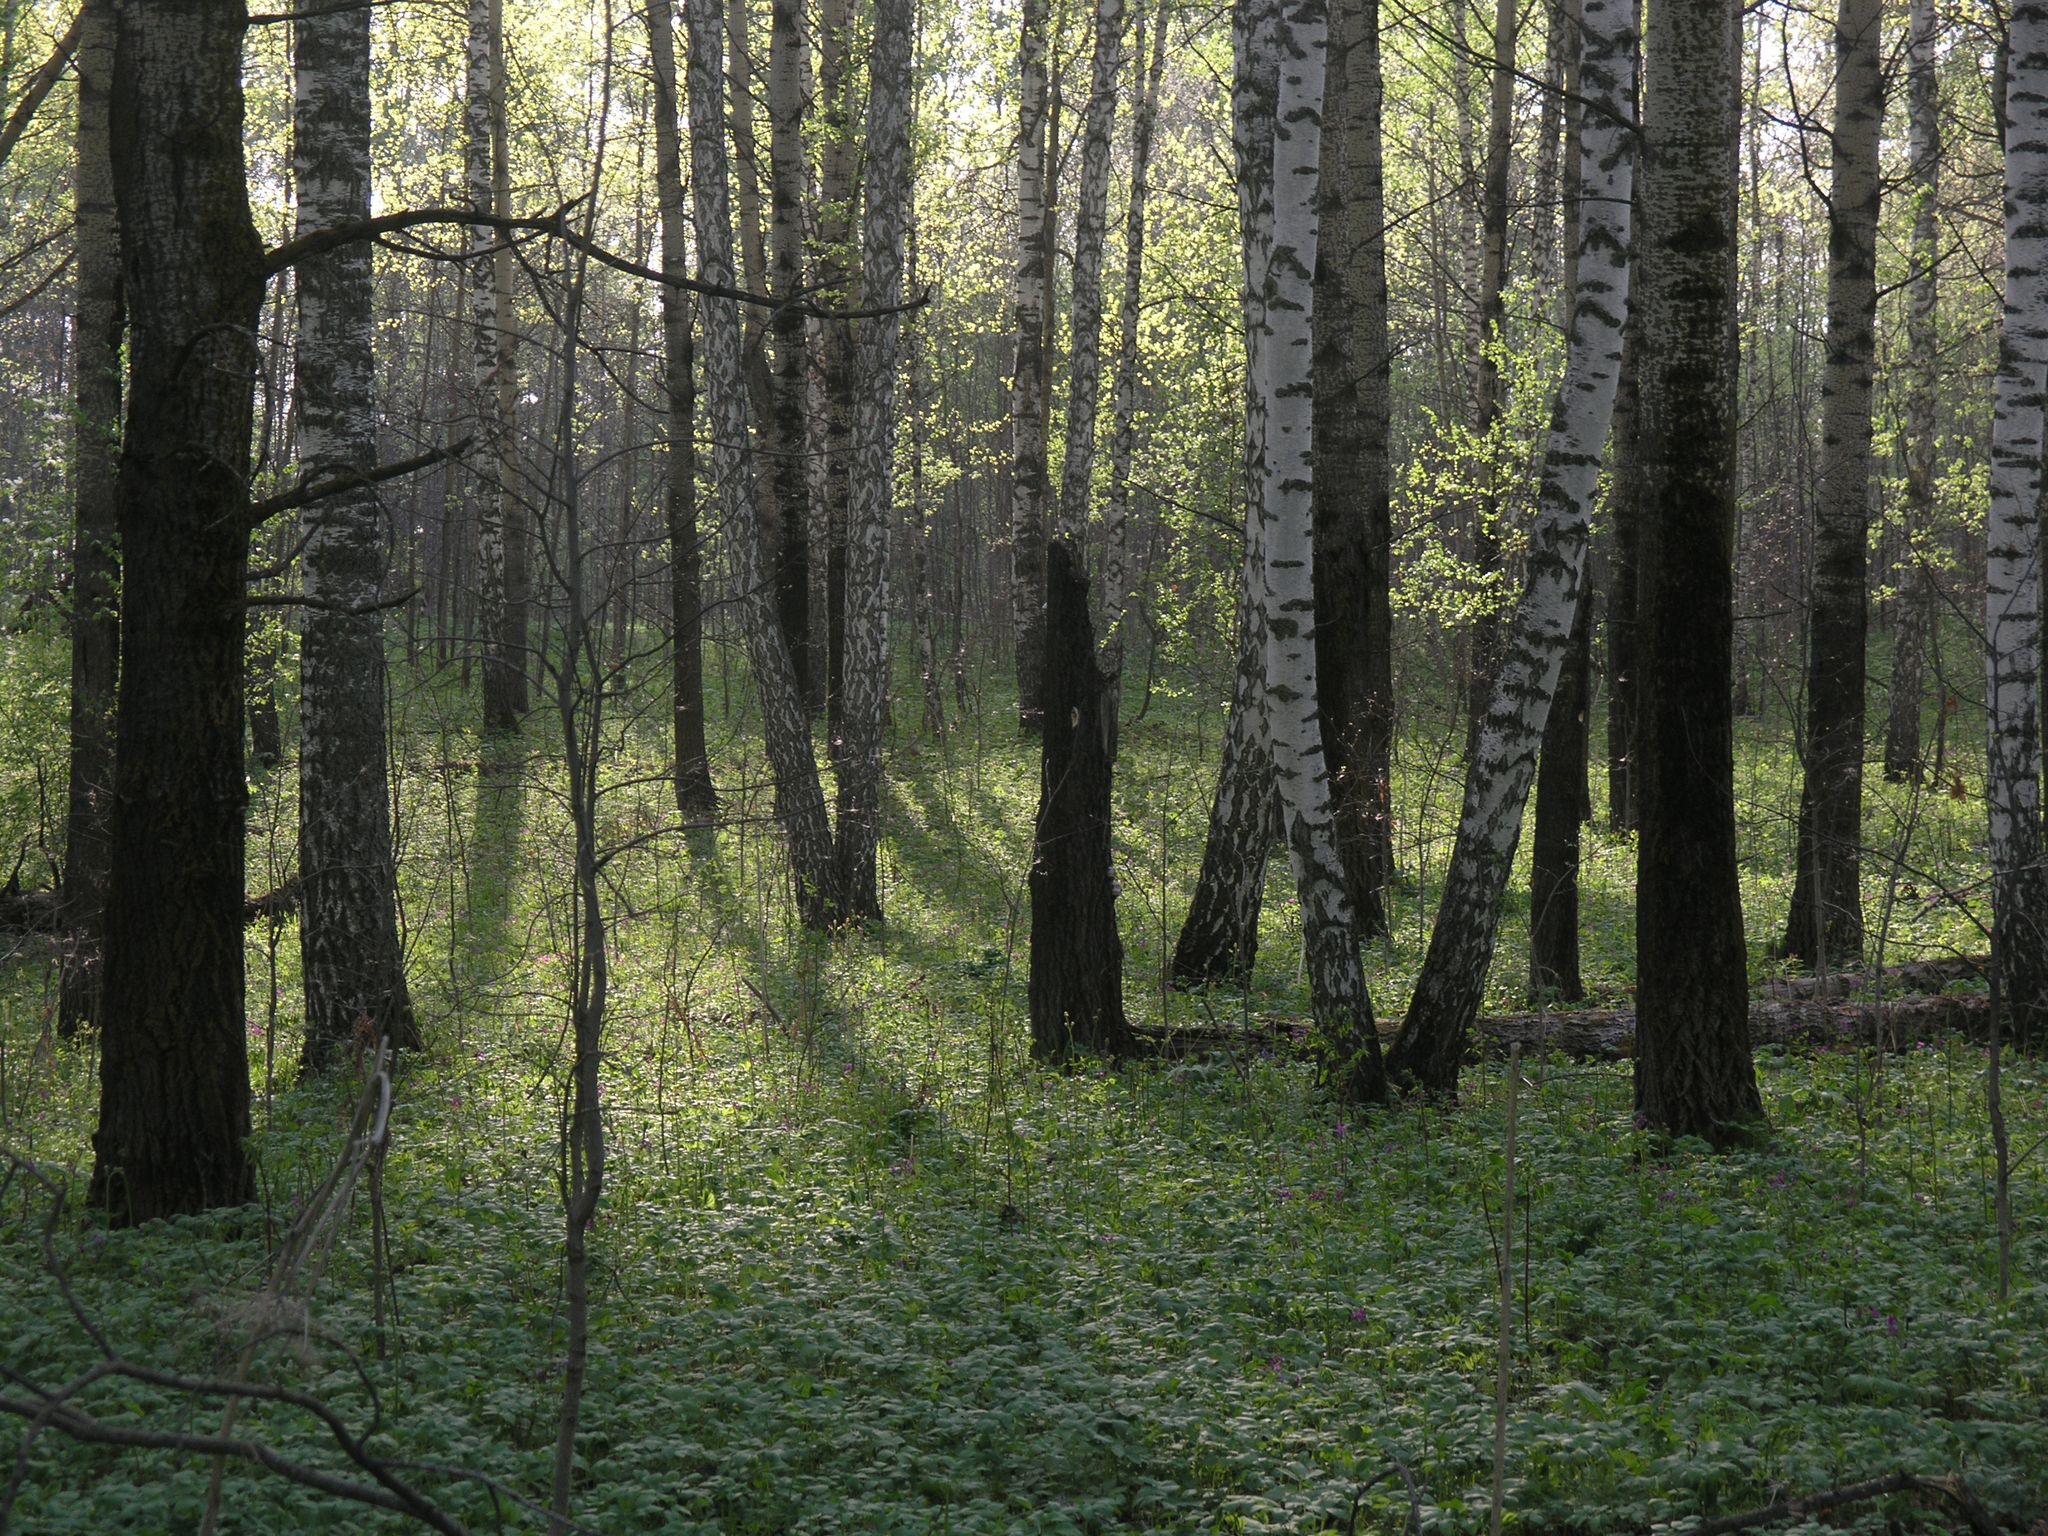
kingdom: Plantae
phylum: Tracheophyta
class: Magnoliopsida
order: Fagales
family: Betulaceae
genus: Betula
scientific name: Betula pendula
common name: Silver birch
